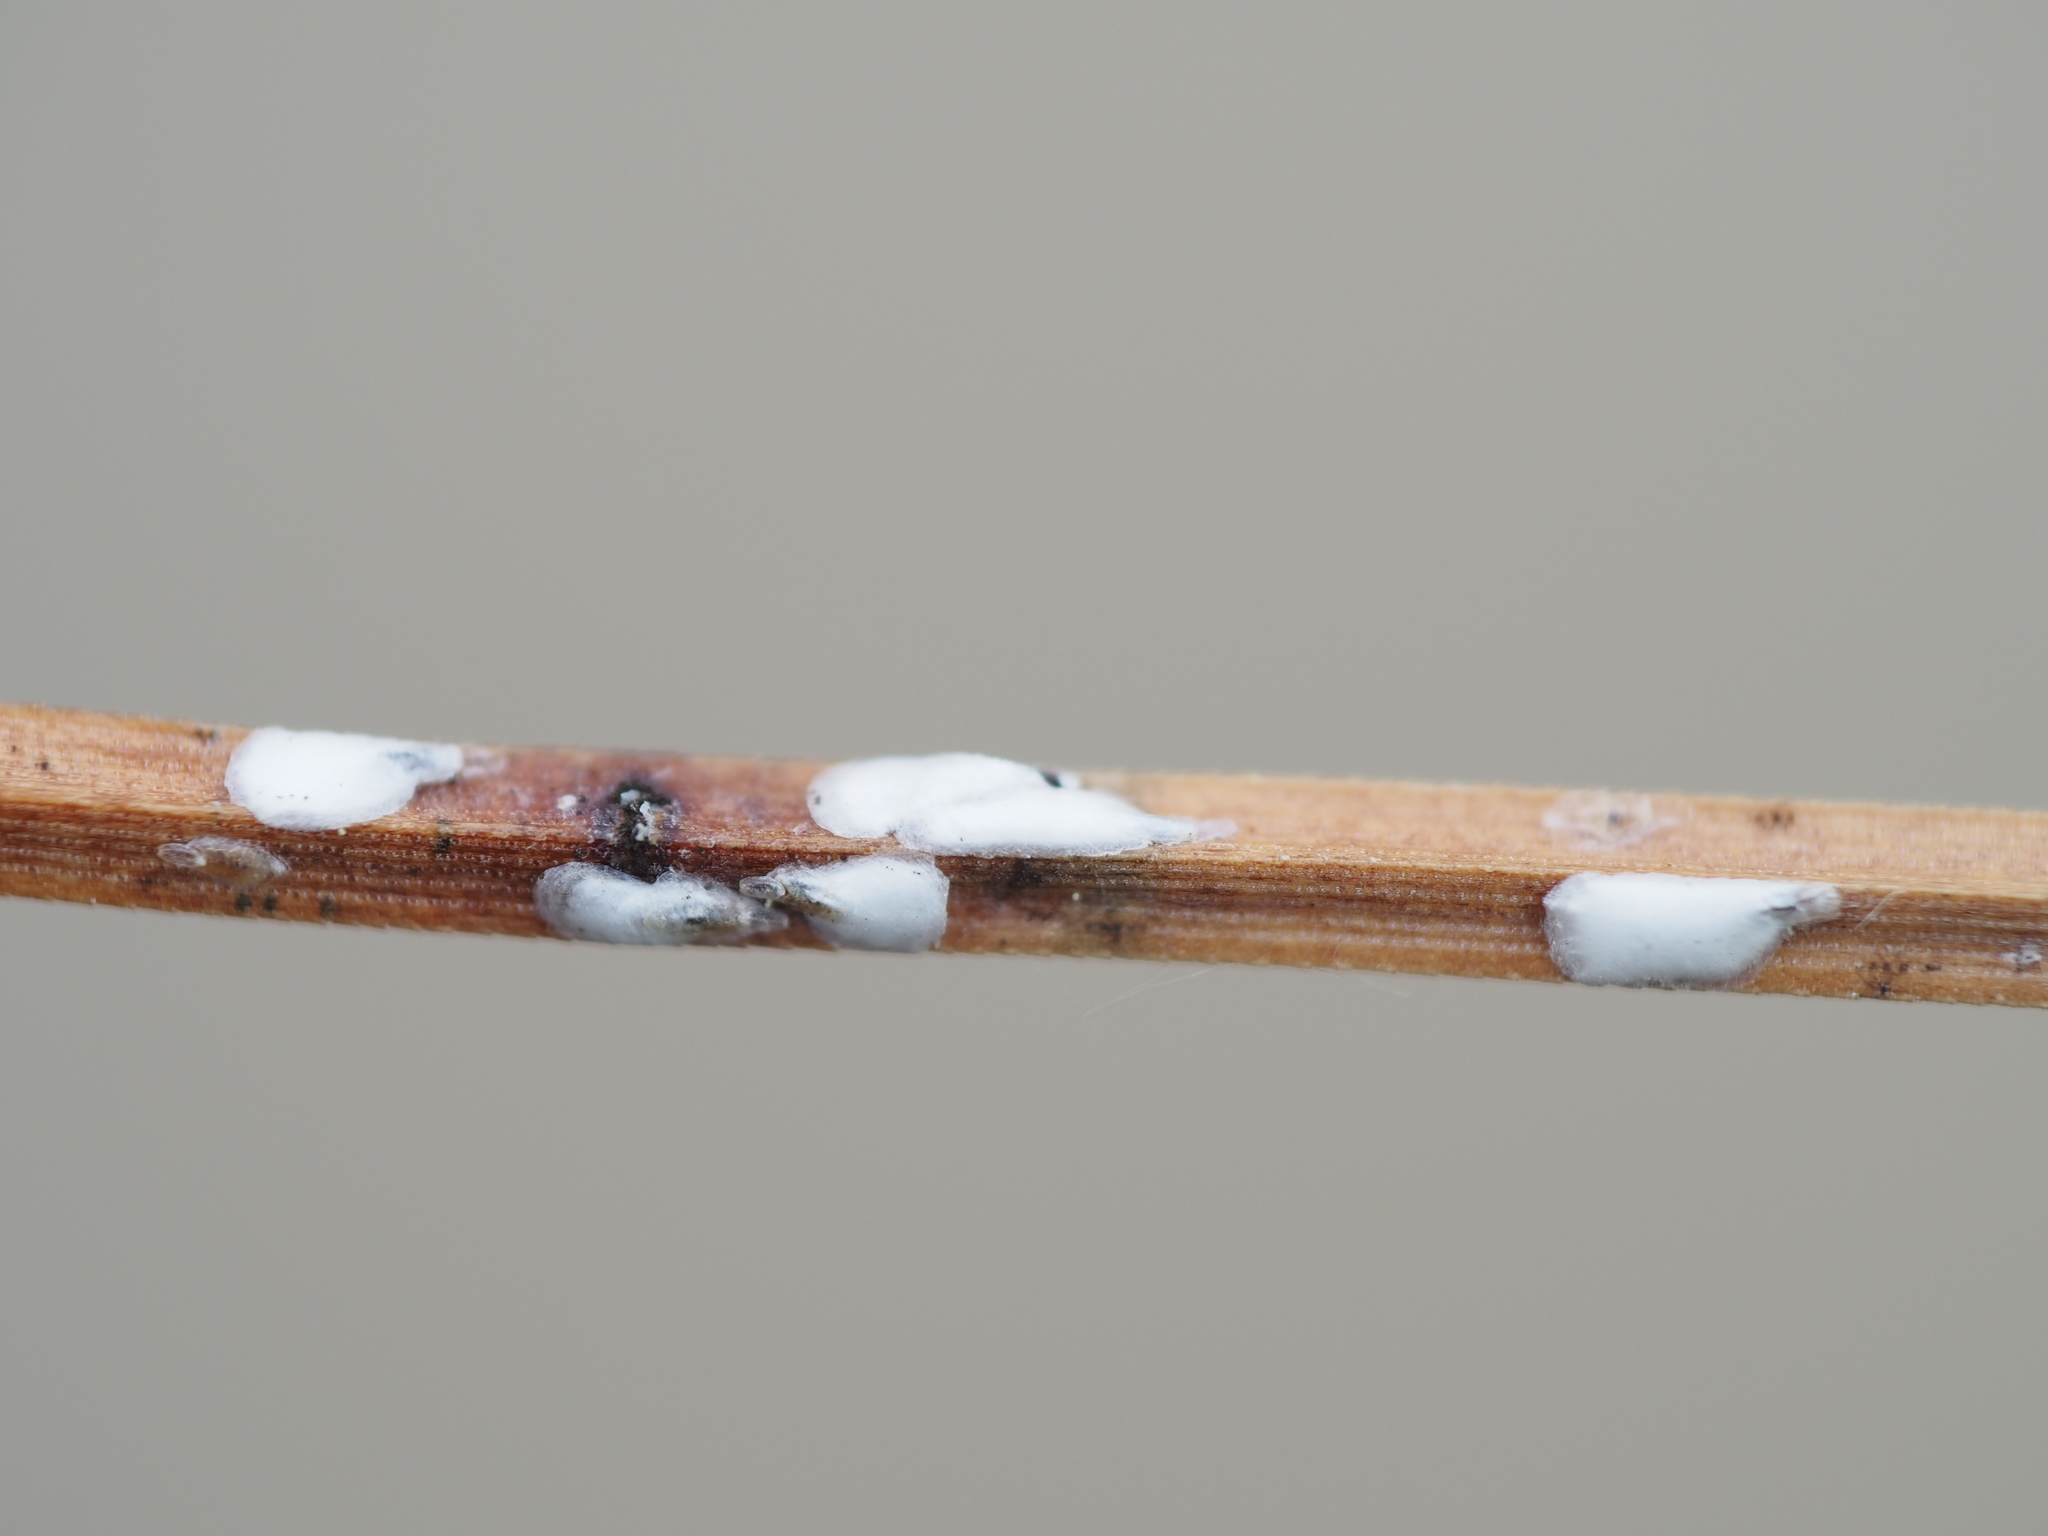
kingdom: Animalia
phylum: Arthropoda
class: Insecta
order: Hemiptera
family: Diaspididae
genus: Chionaspis
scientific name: Chionaspis pinifoliae
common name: Pine leaf scale
